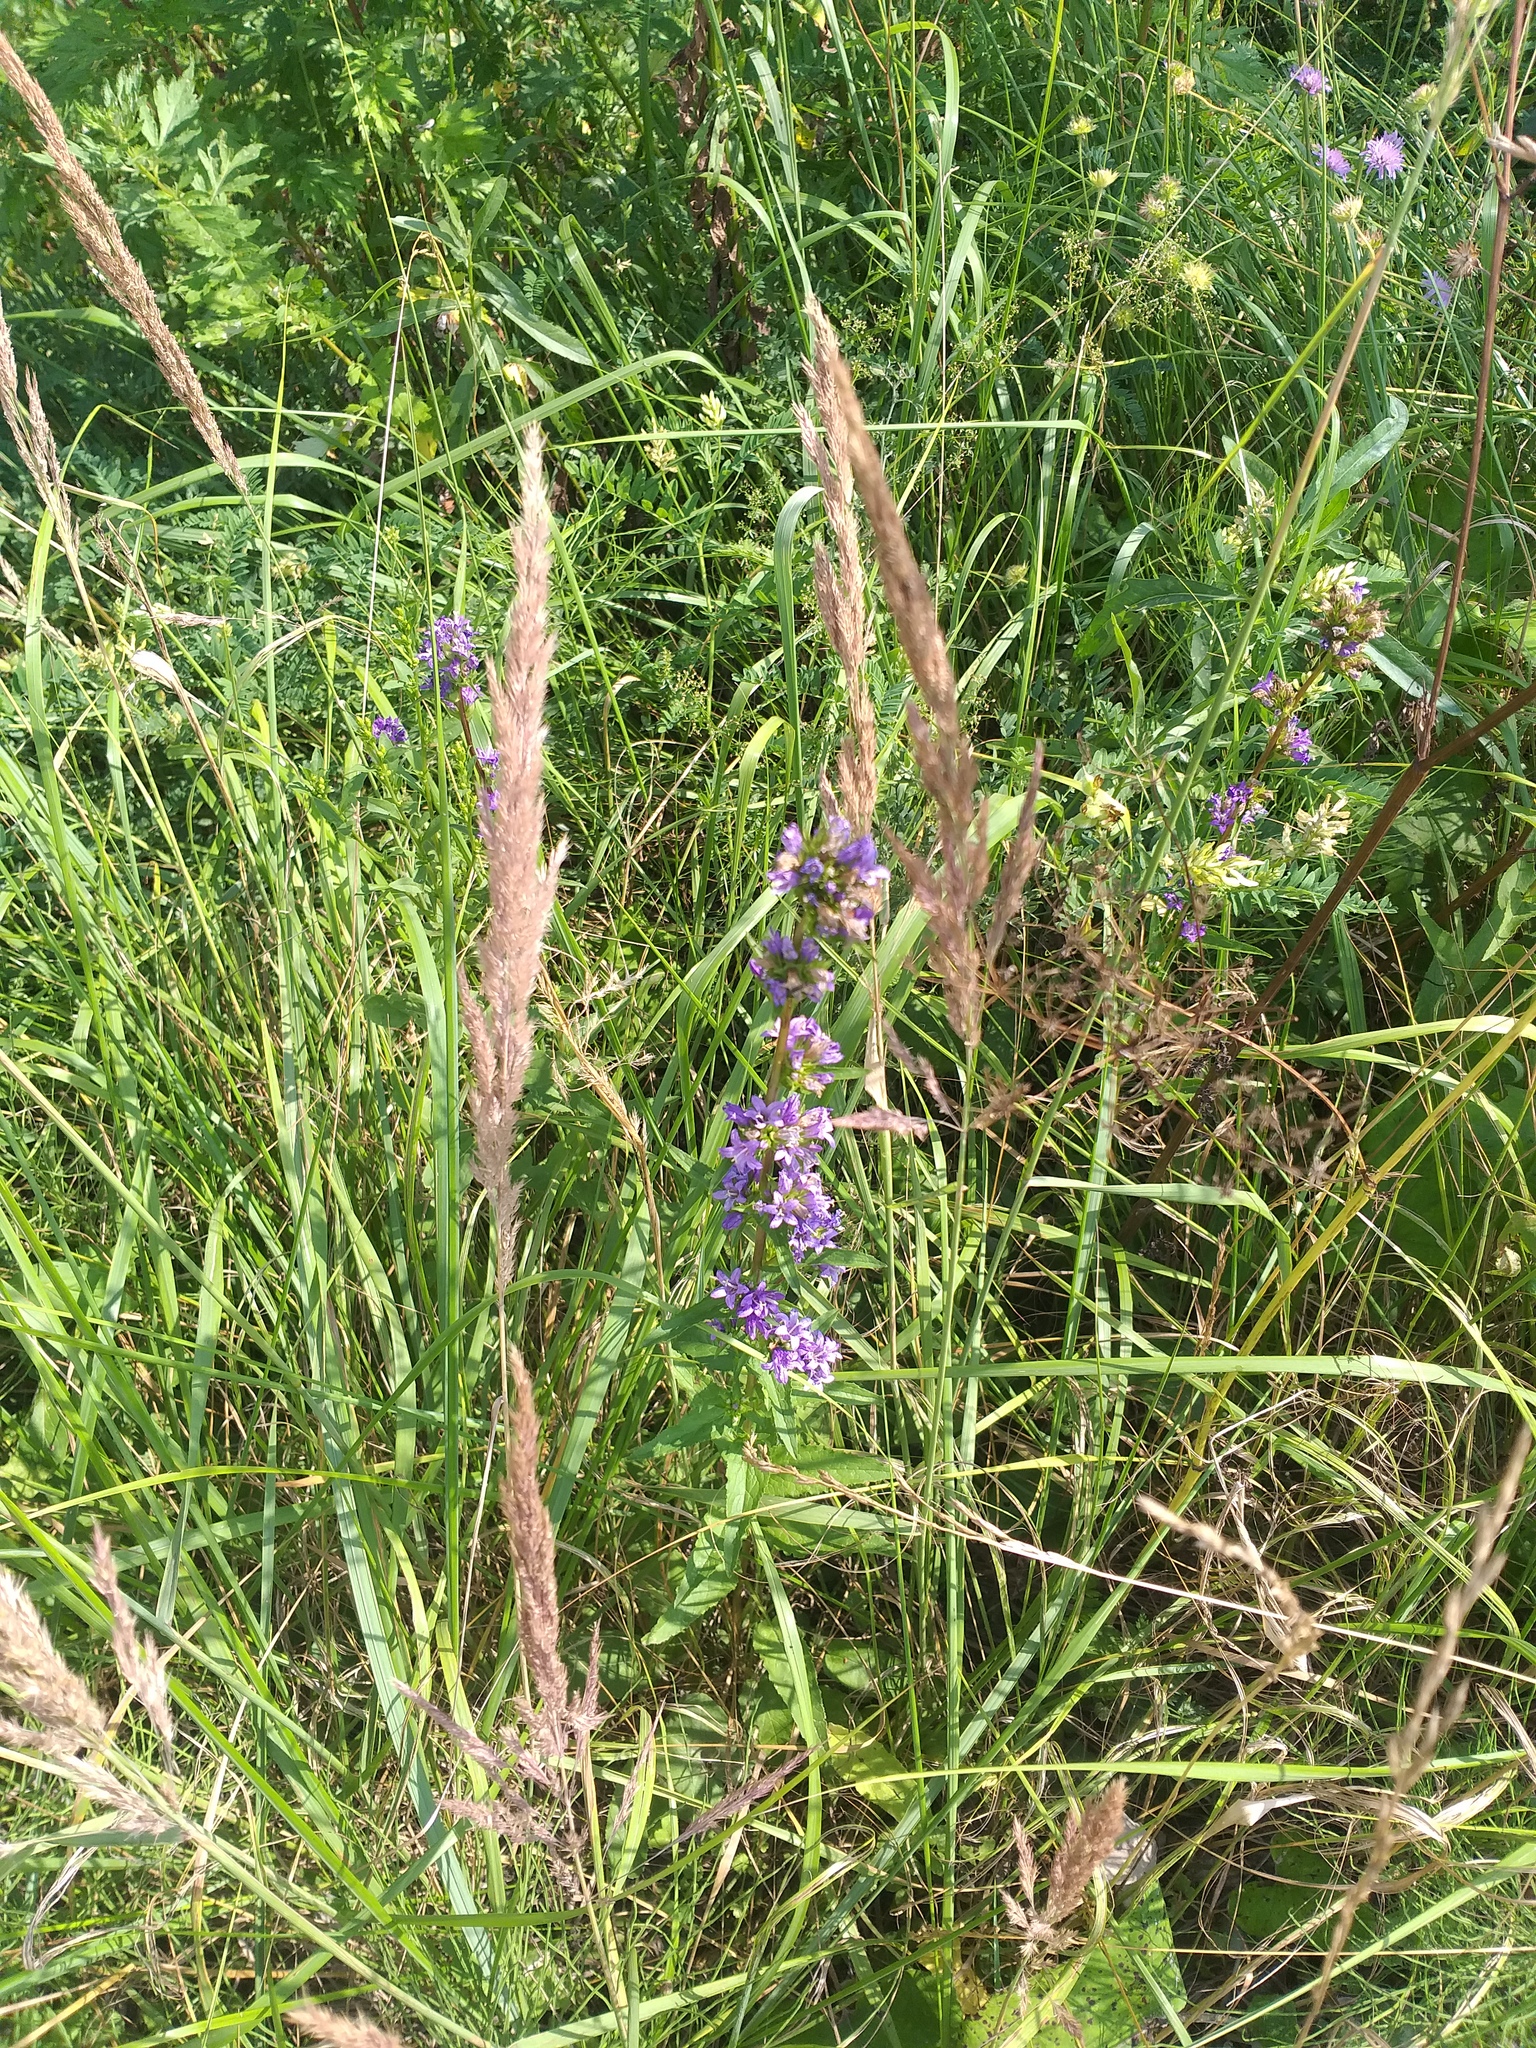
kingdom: Plantae
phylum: Tracheophyta
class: Magnoliopsida
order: Asterales
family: Campanulaceae
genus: Campanula
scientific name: Campanula glomerata
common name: Clustered bellflower
